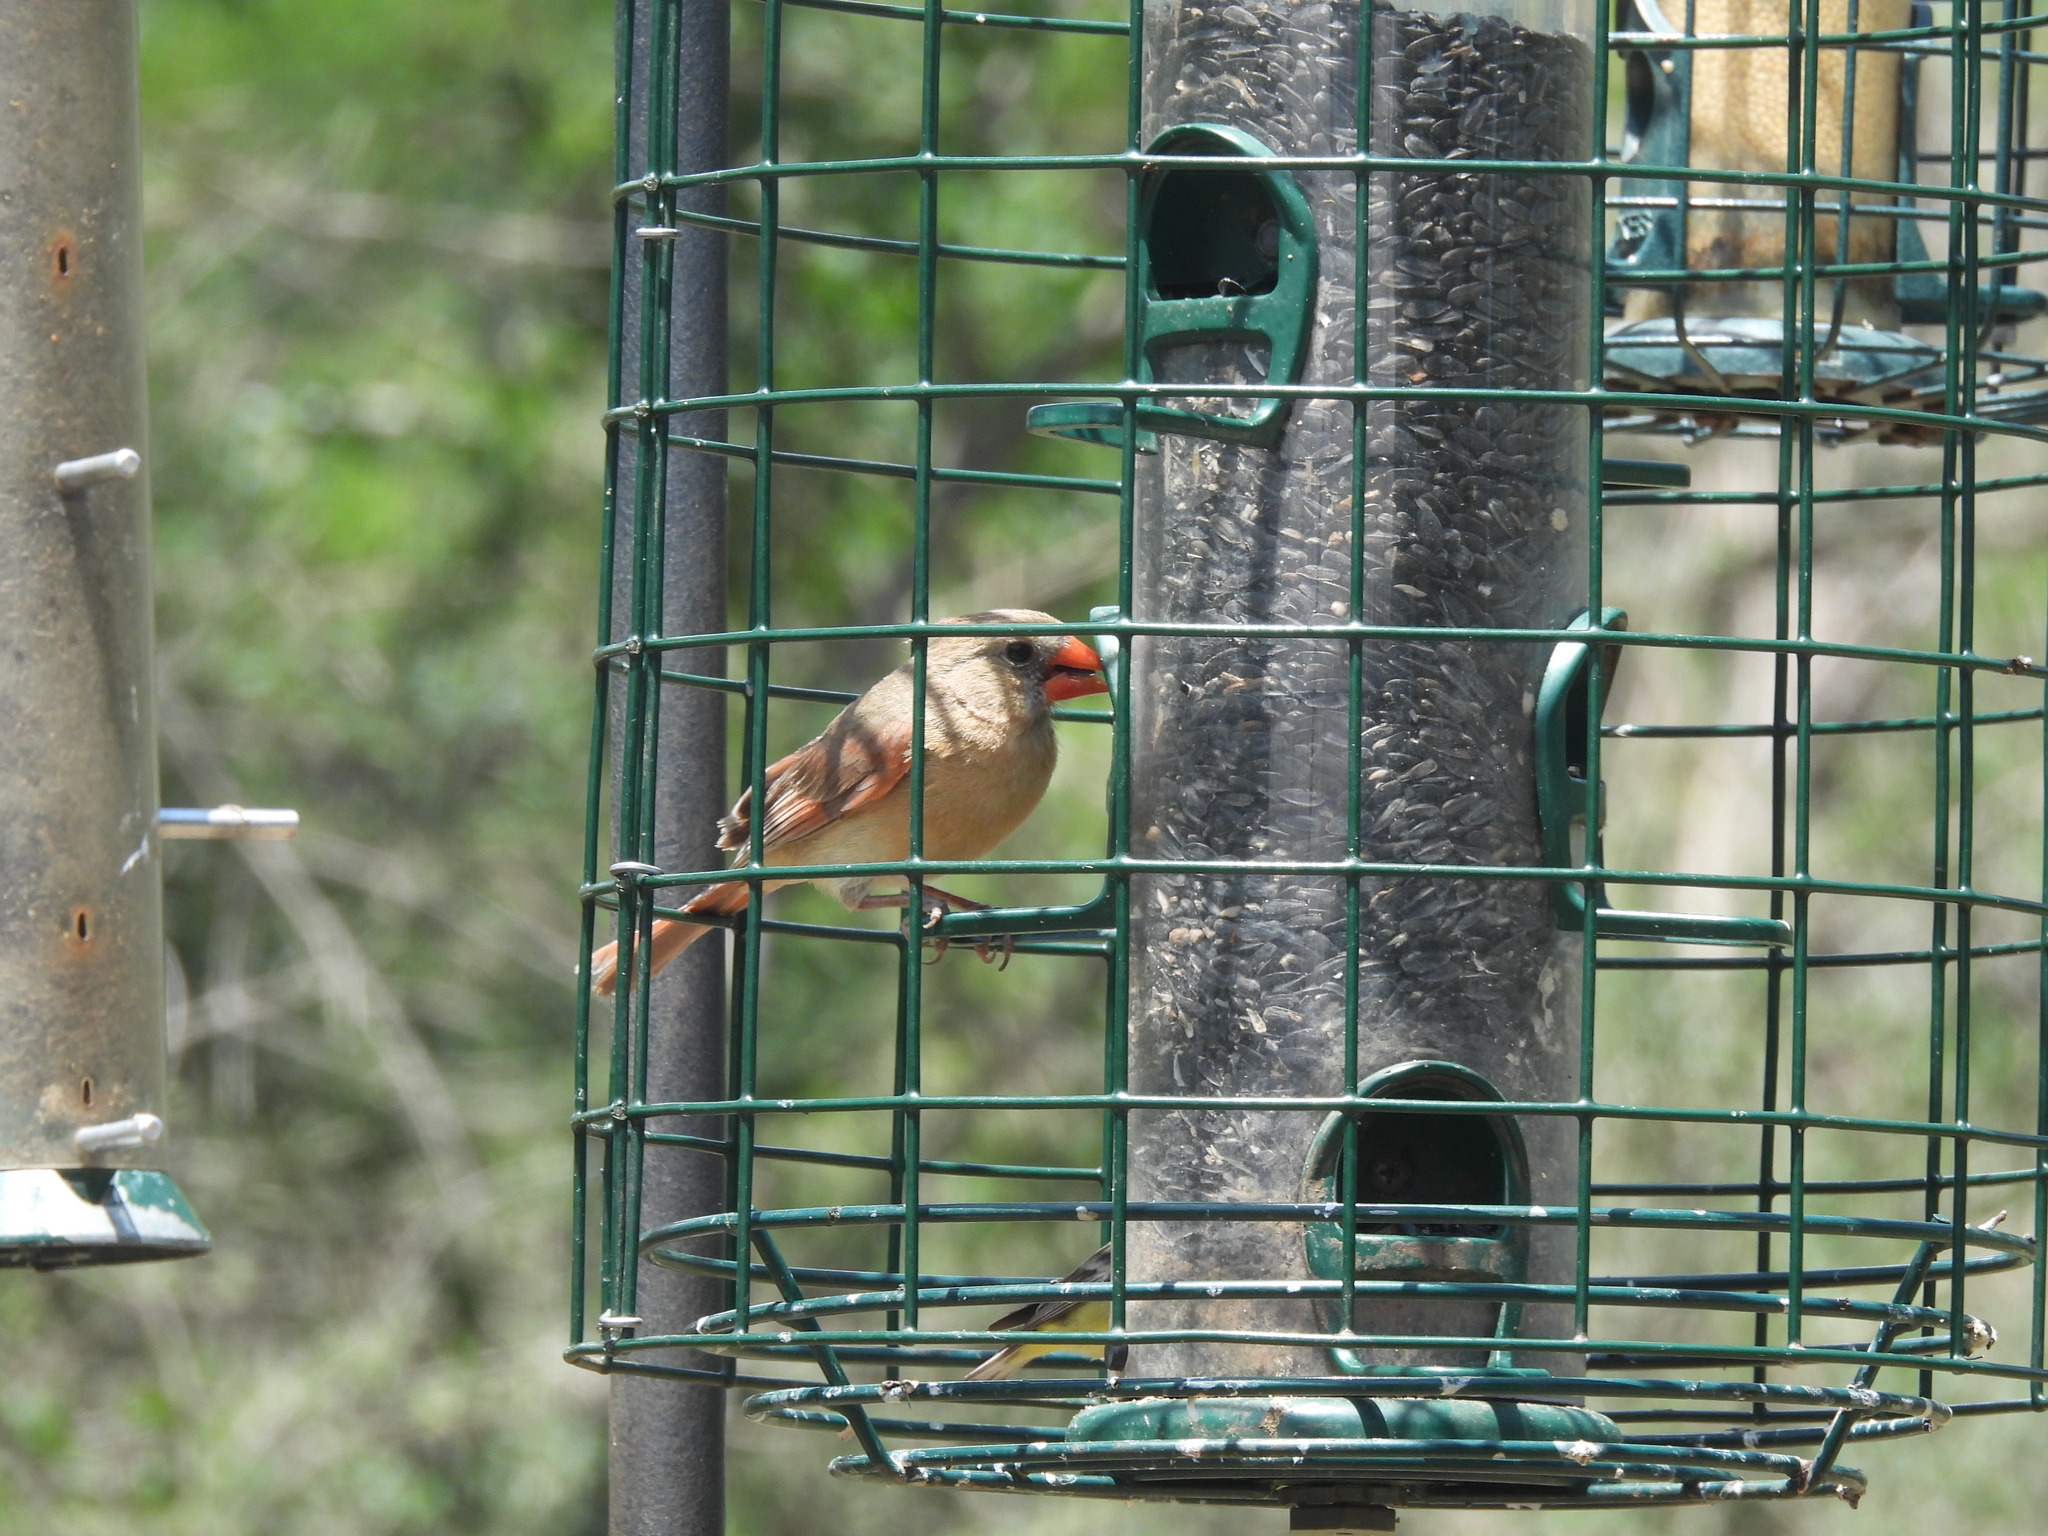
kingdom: Animalia
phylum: Chordata
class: Aves
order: Passeriformes
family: Cardinalidae
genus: Cardinalis
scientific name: Cardinalis cardinalis
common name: Northern cardinal
